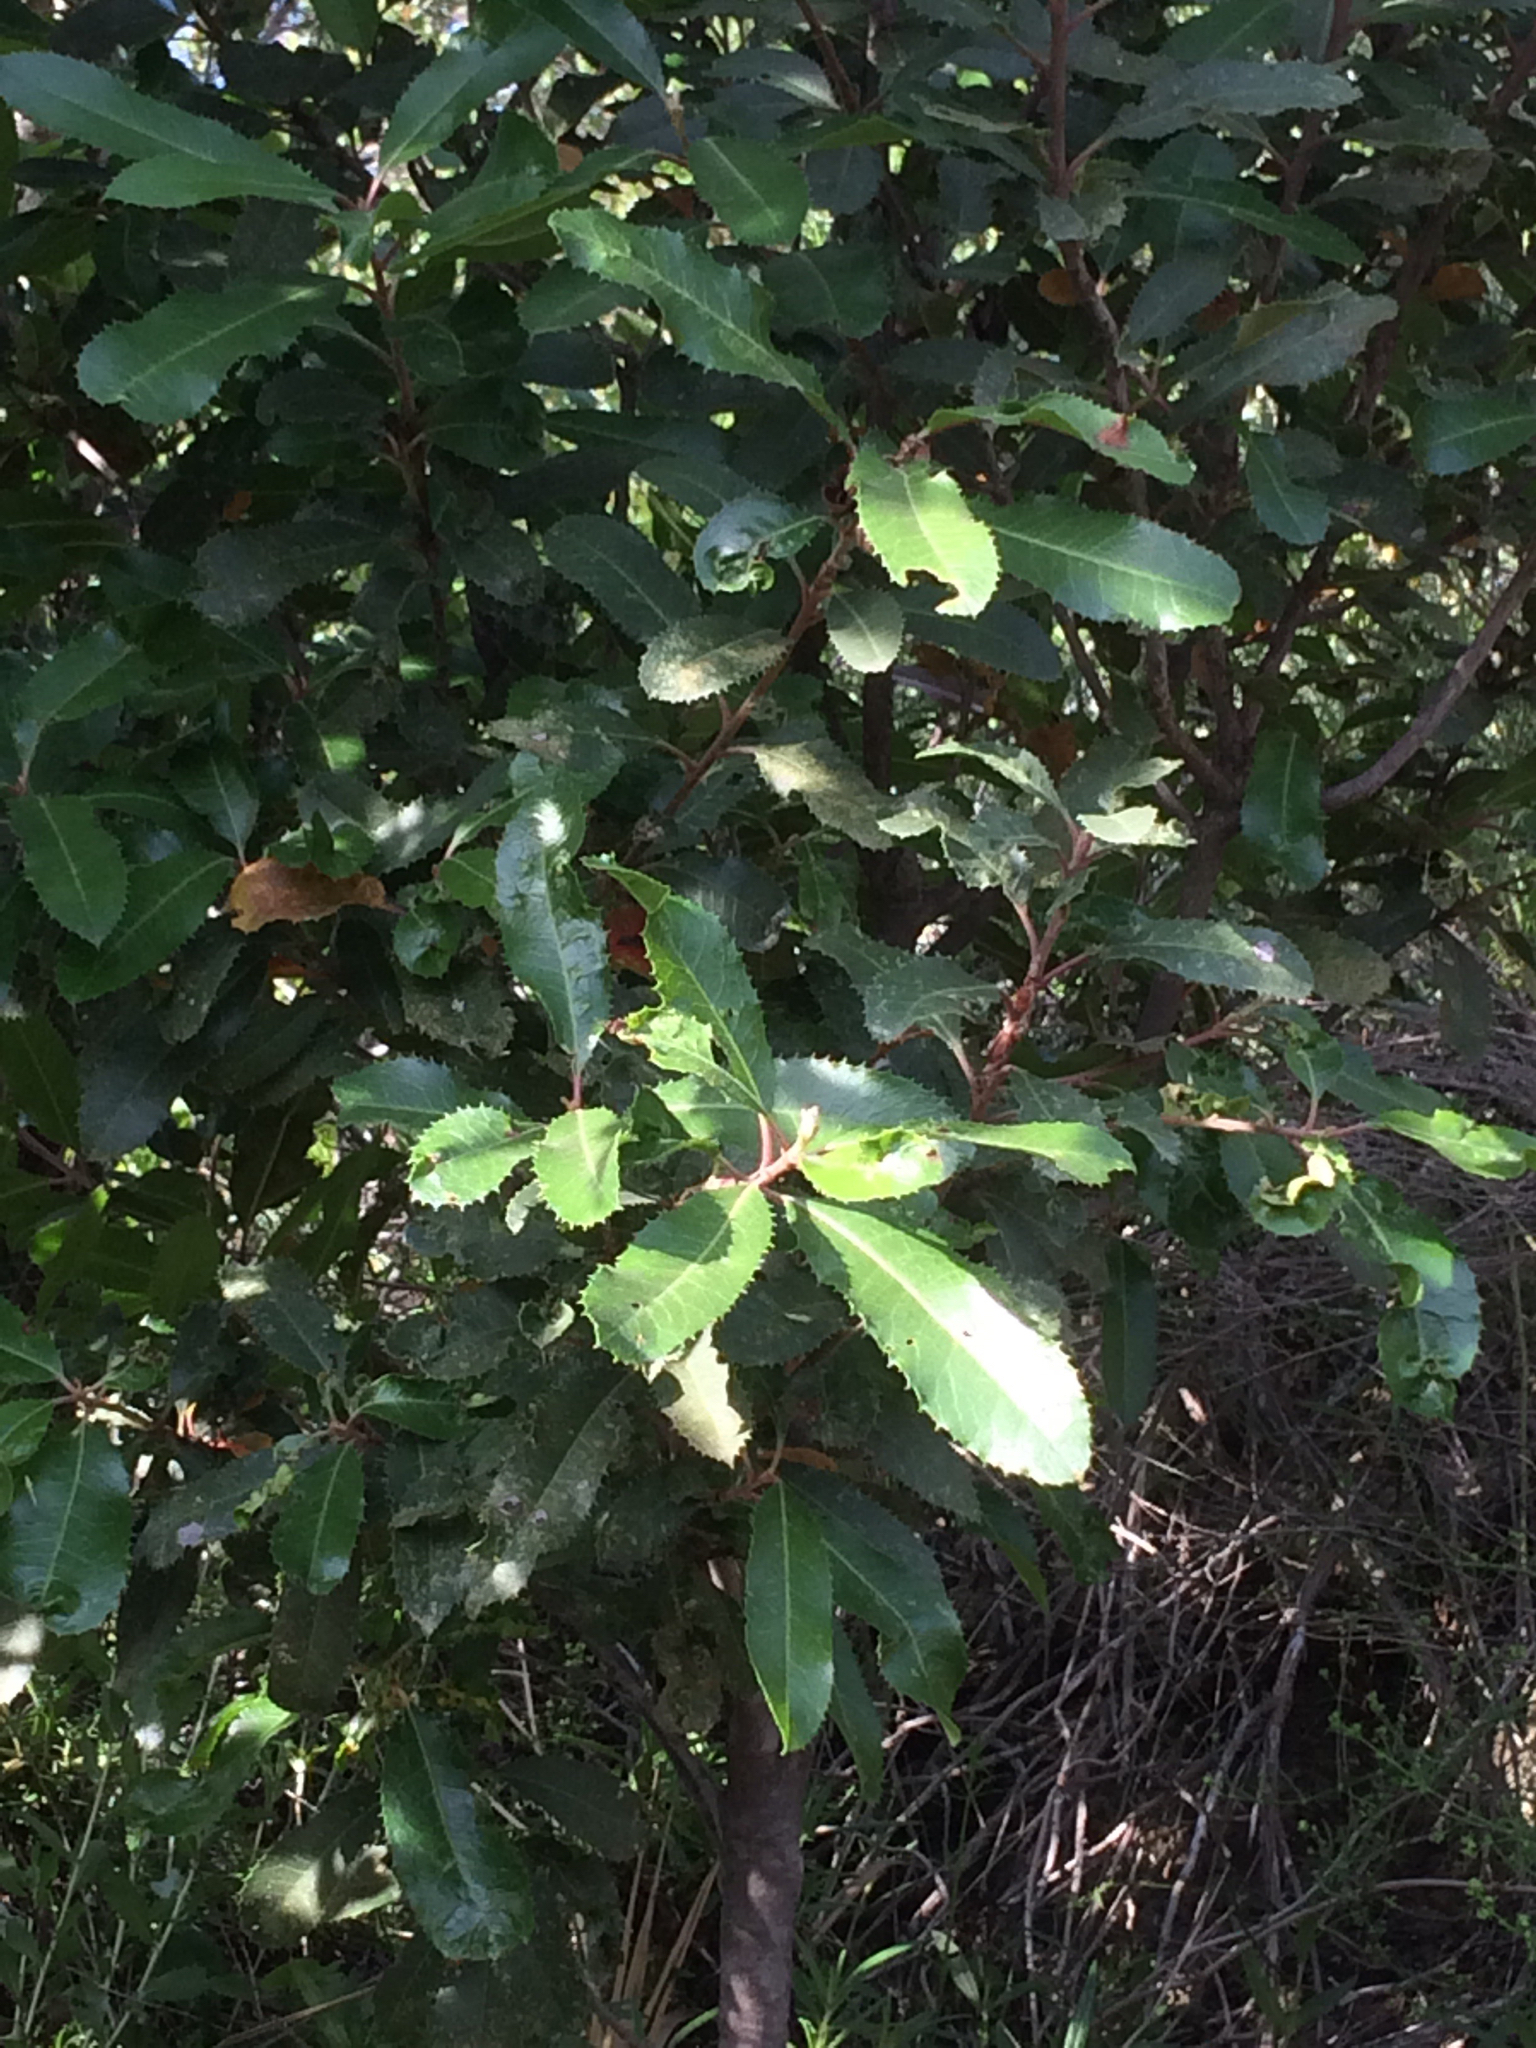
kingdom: Plantae
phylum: Tracheophyta
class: Magnoliopsida
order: Rosales
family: Rosaceae
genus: Heteromeles
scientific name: Heteromeles arbutifolia
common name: California-holly
